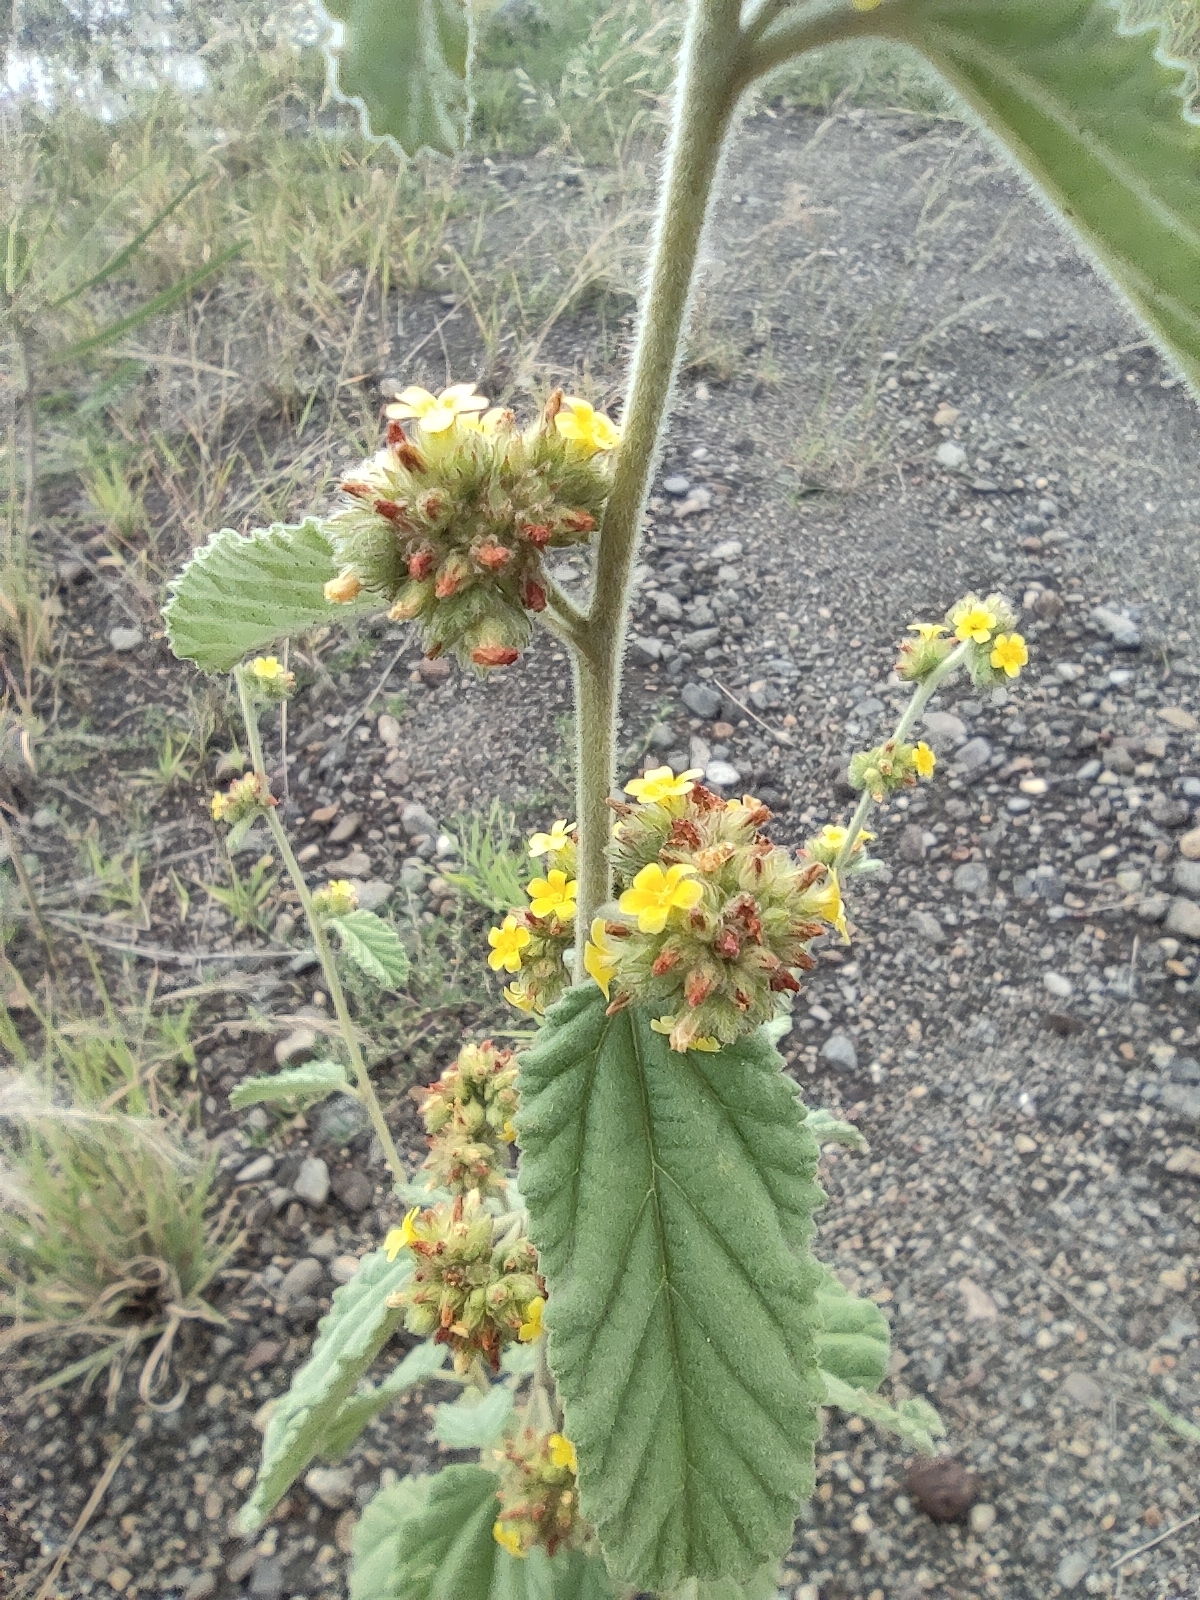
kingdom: Plantae
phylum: Tracheophyta
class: Magnoliopsida
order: Malvales
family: Malvaceae
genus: Waltheria
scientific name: Waltheria indica
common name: Leather-coat
